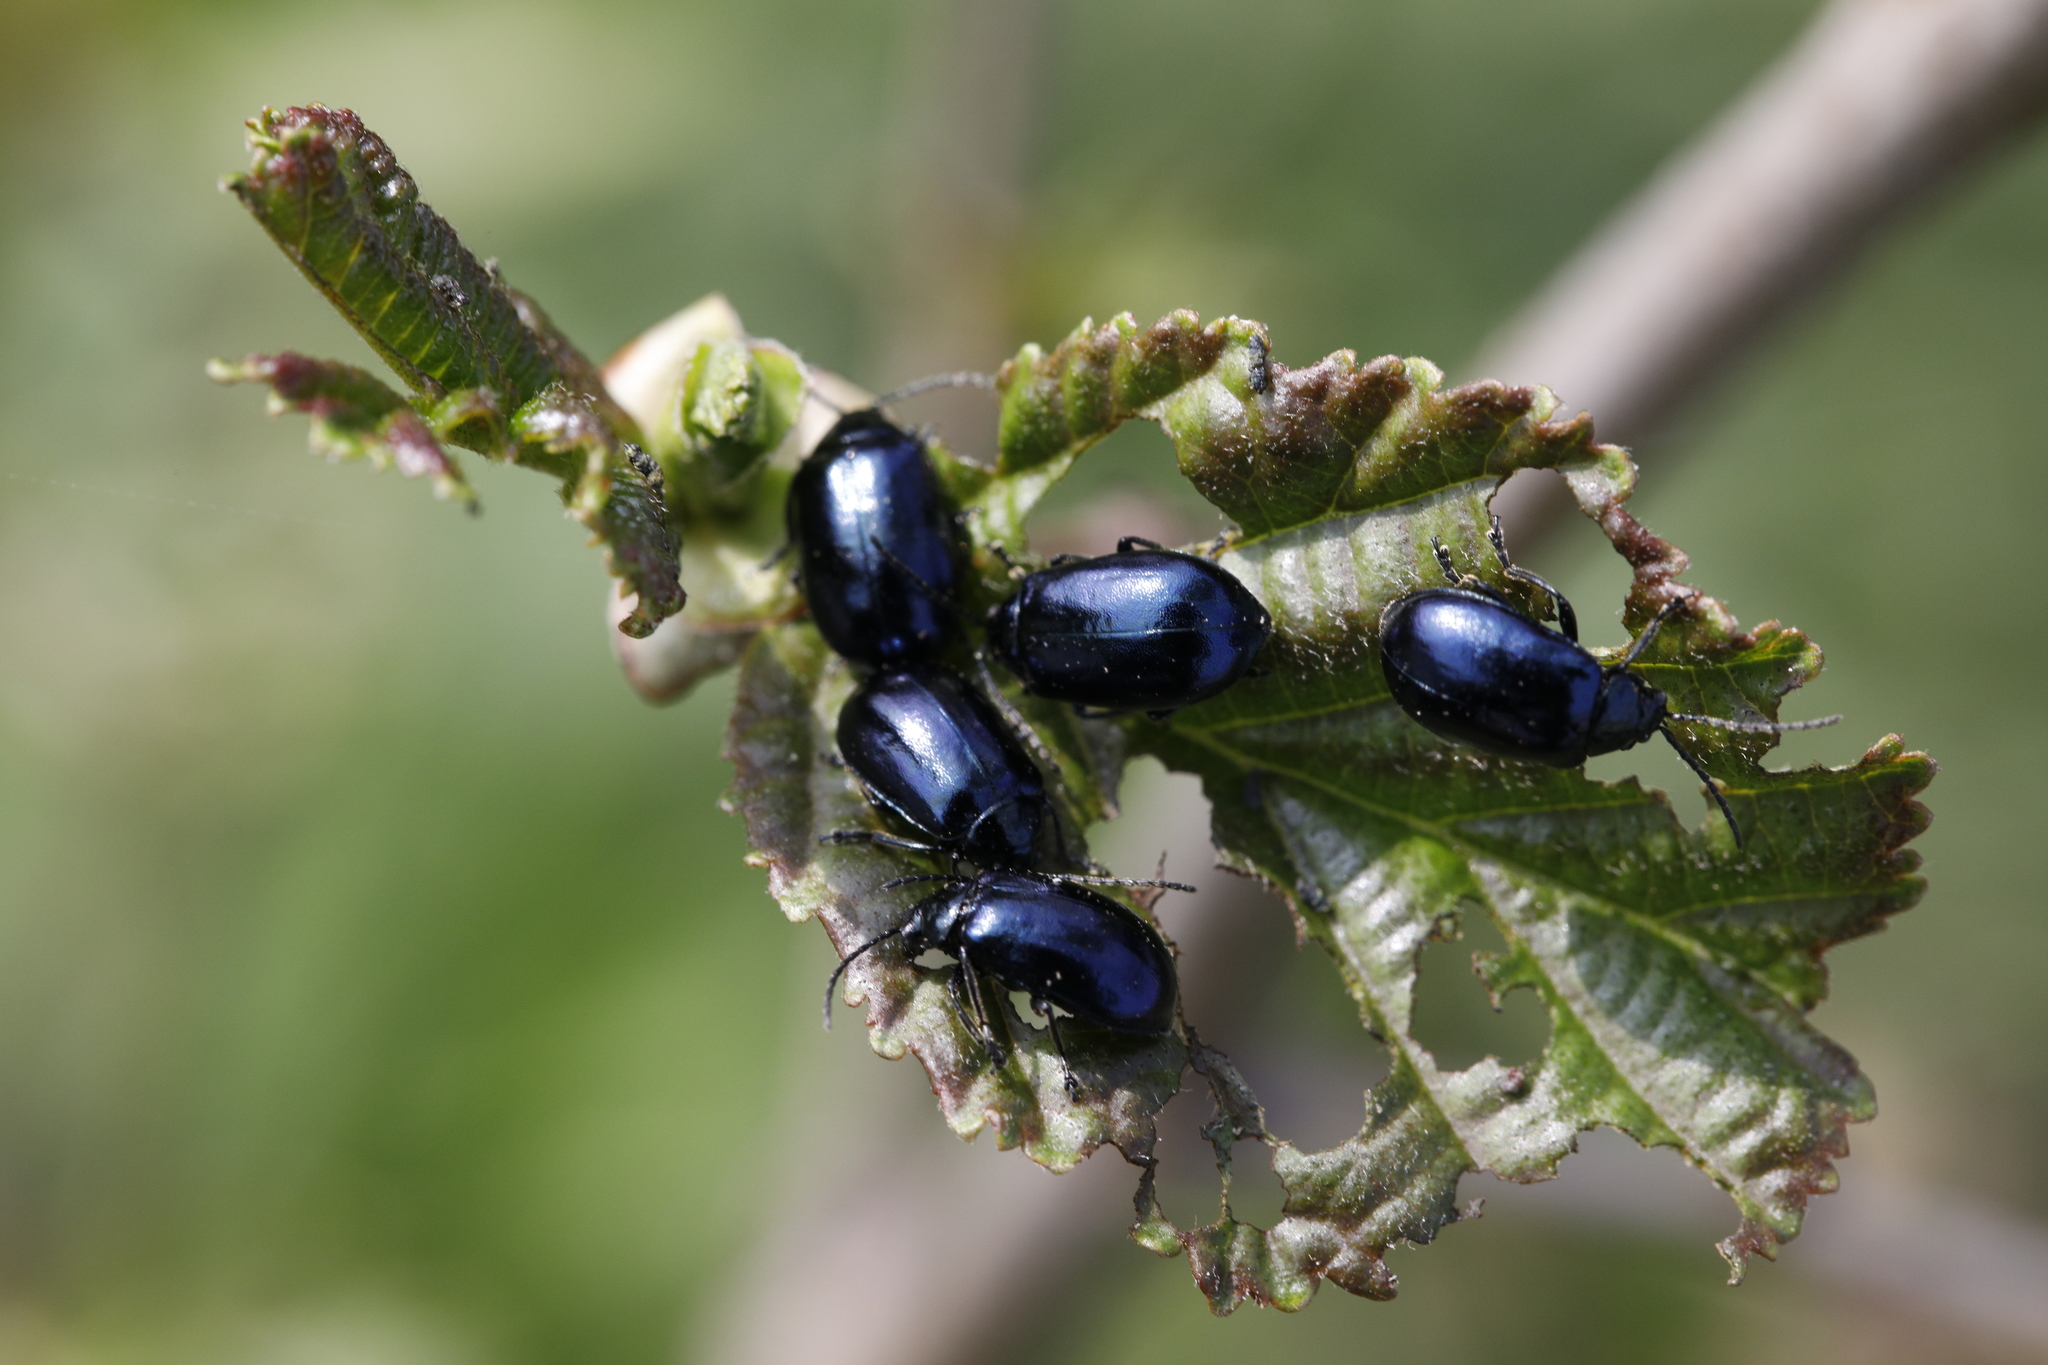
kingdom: Animalia
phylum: Arthropoda
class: Insecta
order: Coleoptera
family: Chrysomelidae
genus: Agelastica
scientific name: Agelastica alni
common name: Alder leaf beetle
